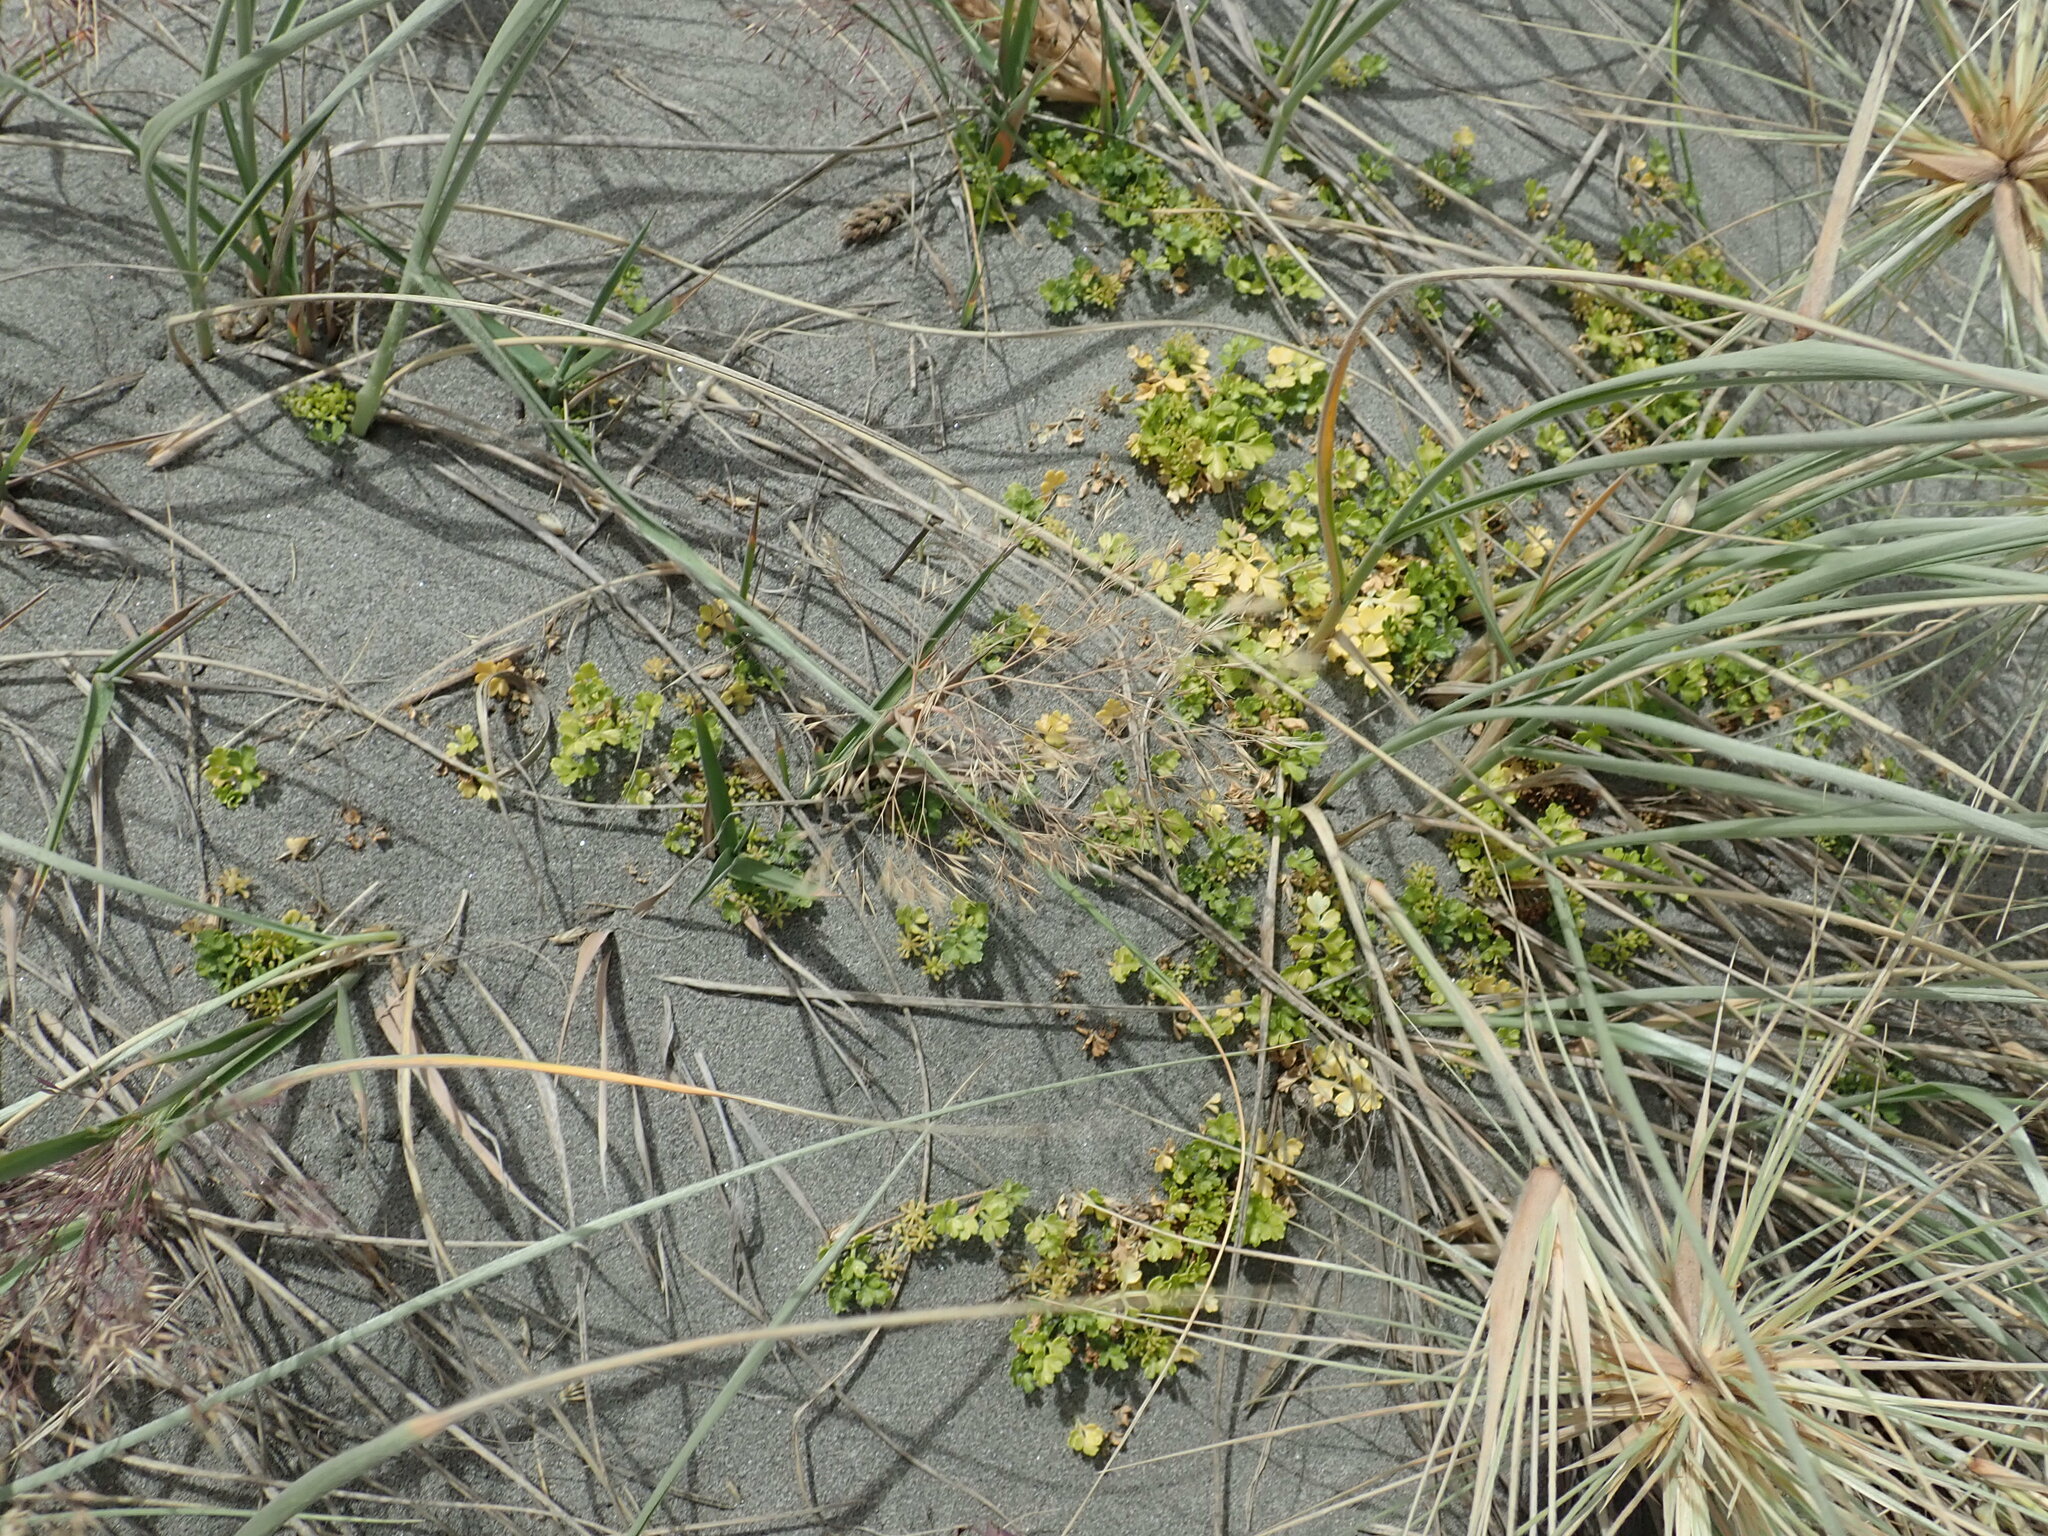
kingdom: Plantae
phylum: Tracheophyta
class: Magnoliopsida
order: Apiales
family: Apiaceae
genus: Apium
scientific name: Apium prostratum
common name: Prostrate marshwort
